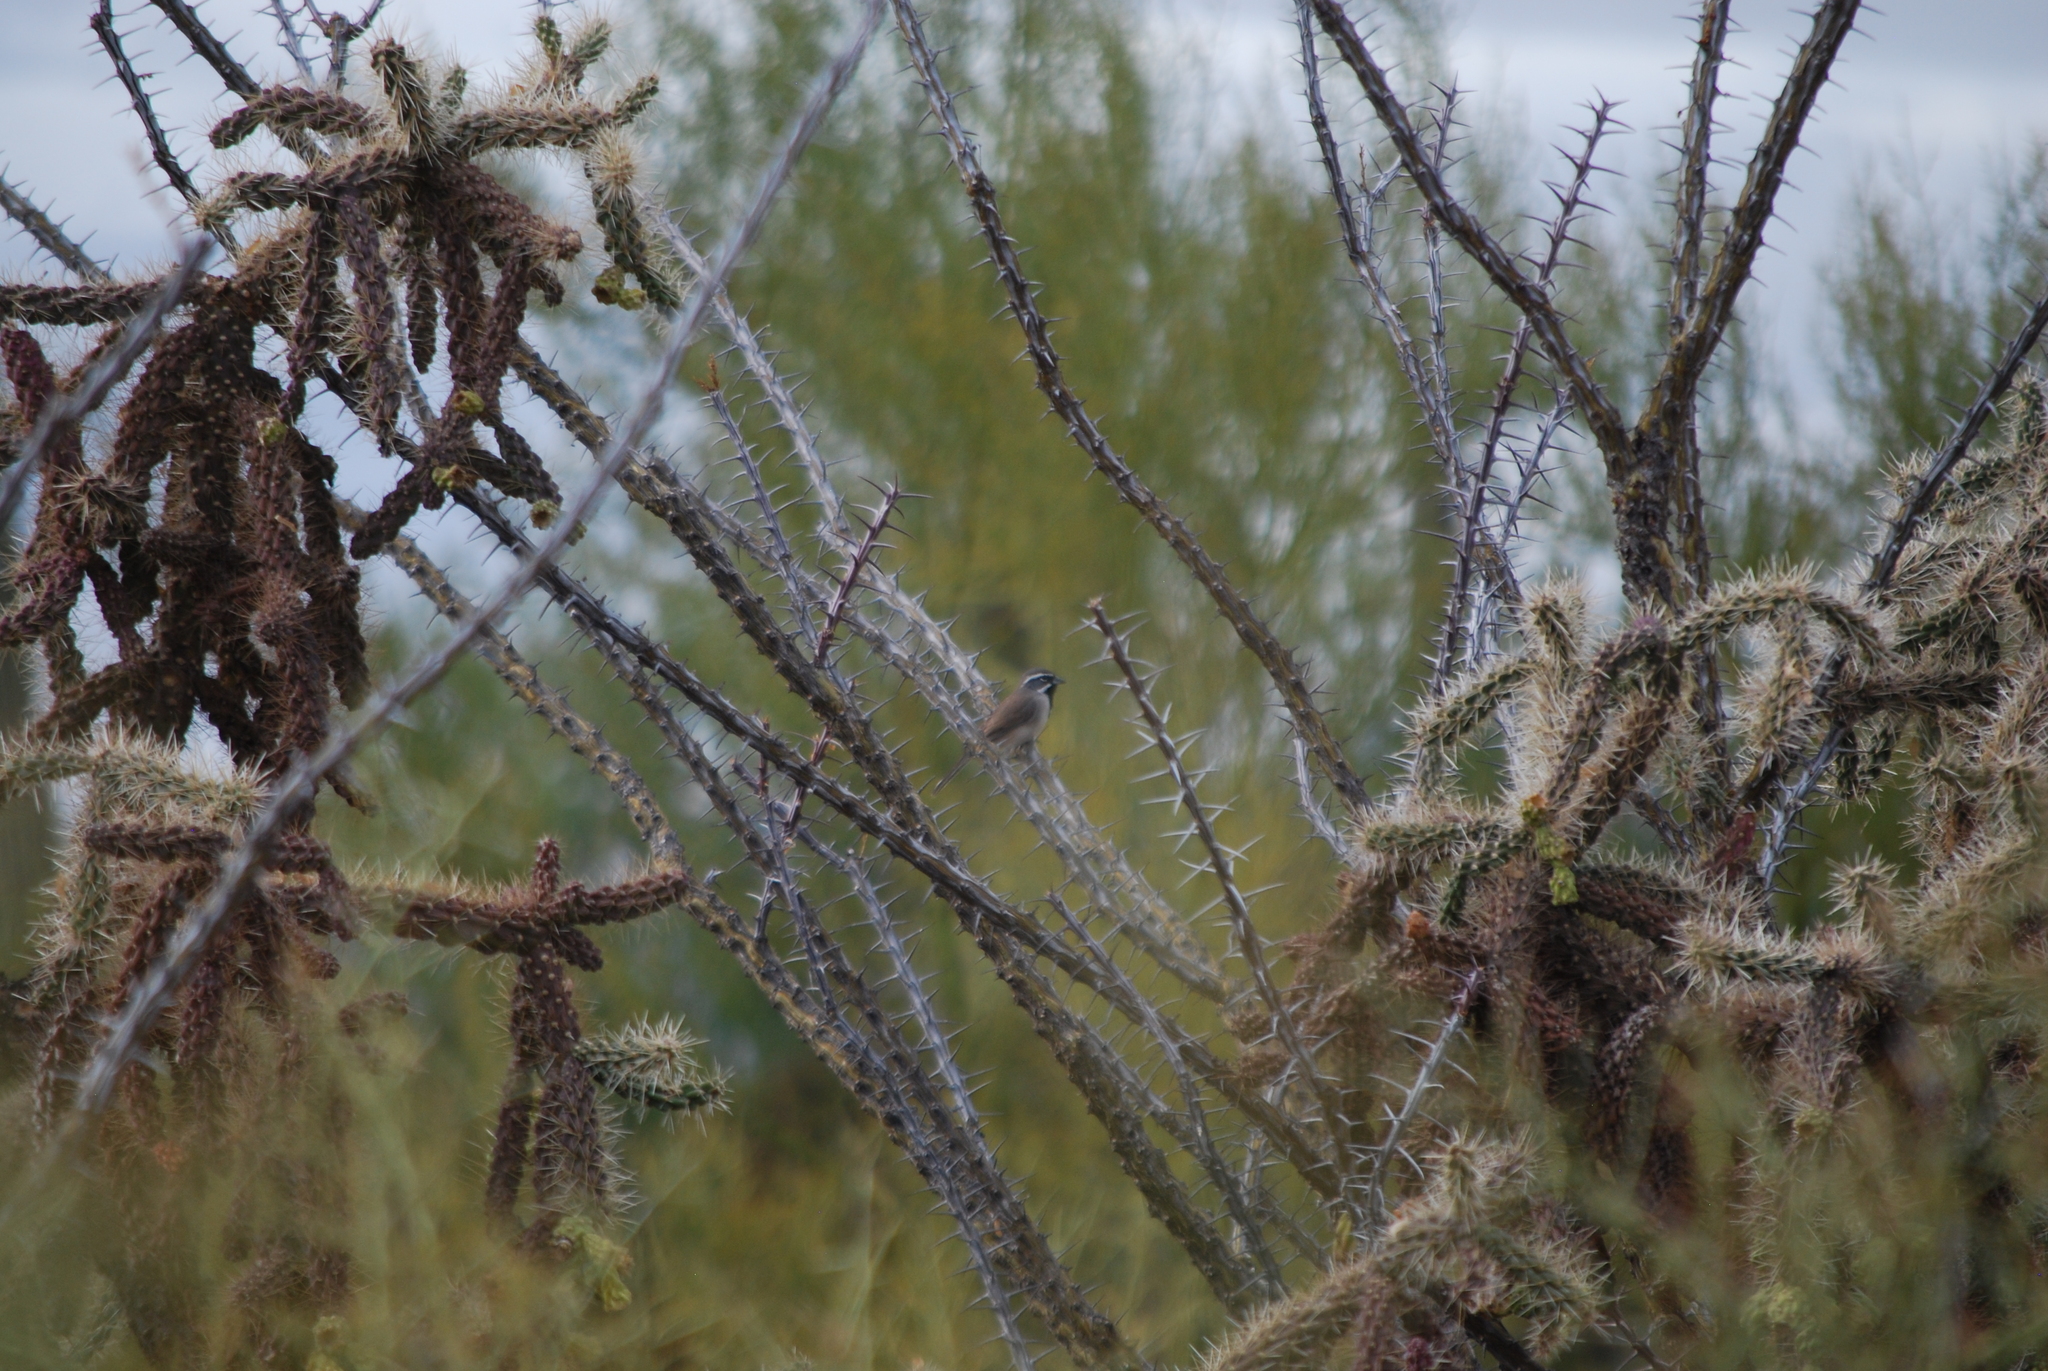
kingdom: Animalia
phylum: Chordata
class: Aves
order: Passeriformes
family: Passerellidae
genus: Amphispiza
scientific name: Amphispiza bilineata
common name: Black-throated sparrow
